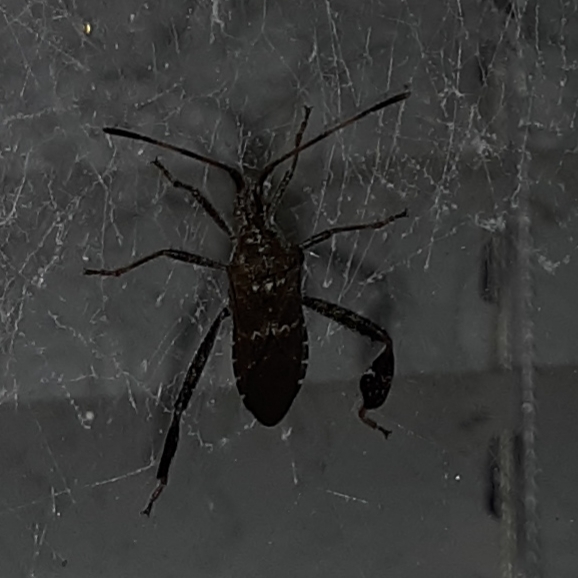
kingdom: Animalia
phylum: Arthropoda
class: Insecta
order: Hemiptera
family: Coreidae
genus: Leptoglossus
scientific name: Leptoglossus corculus
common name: Southern pine seed bug
